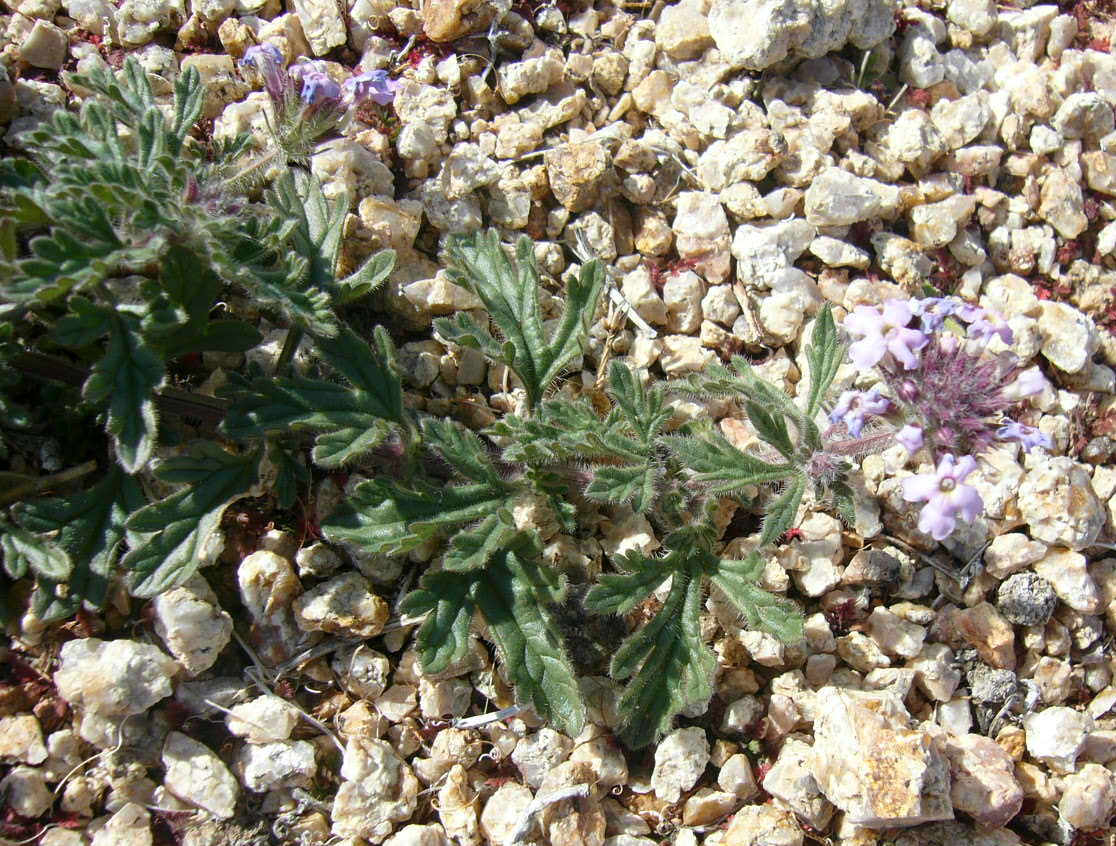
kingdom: Plantae
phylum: Tracheophyta
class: Magnoliopsida
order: Lamiales
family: Verbenaceae
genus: Verbena
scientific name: Verbena gooddingii
